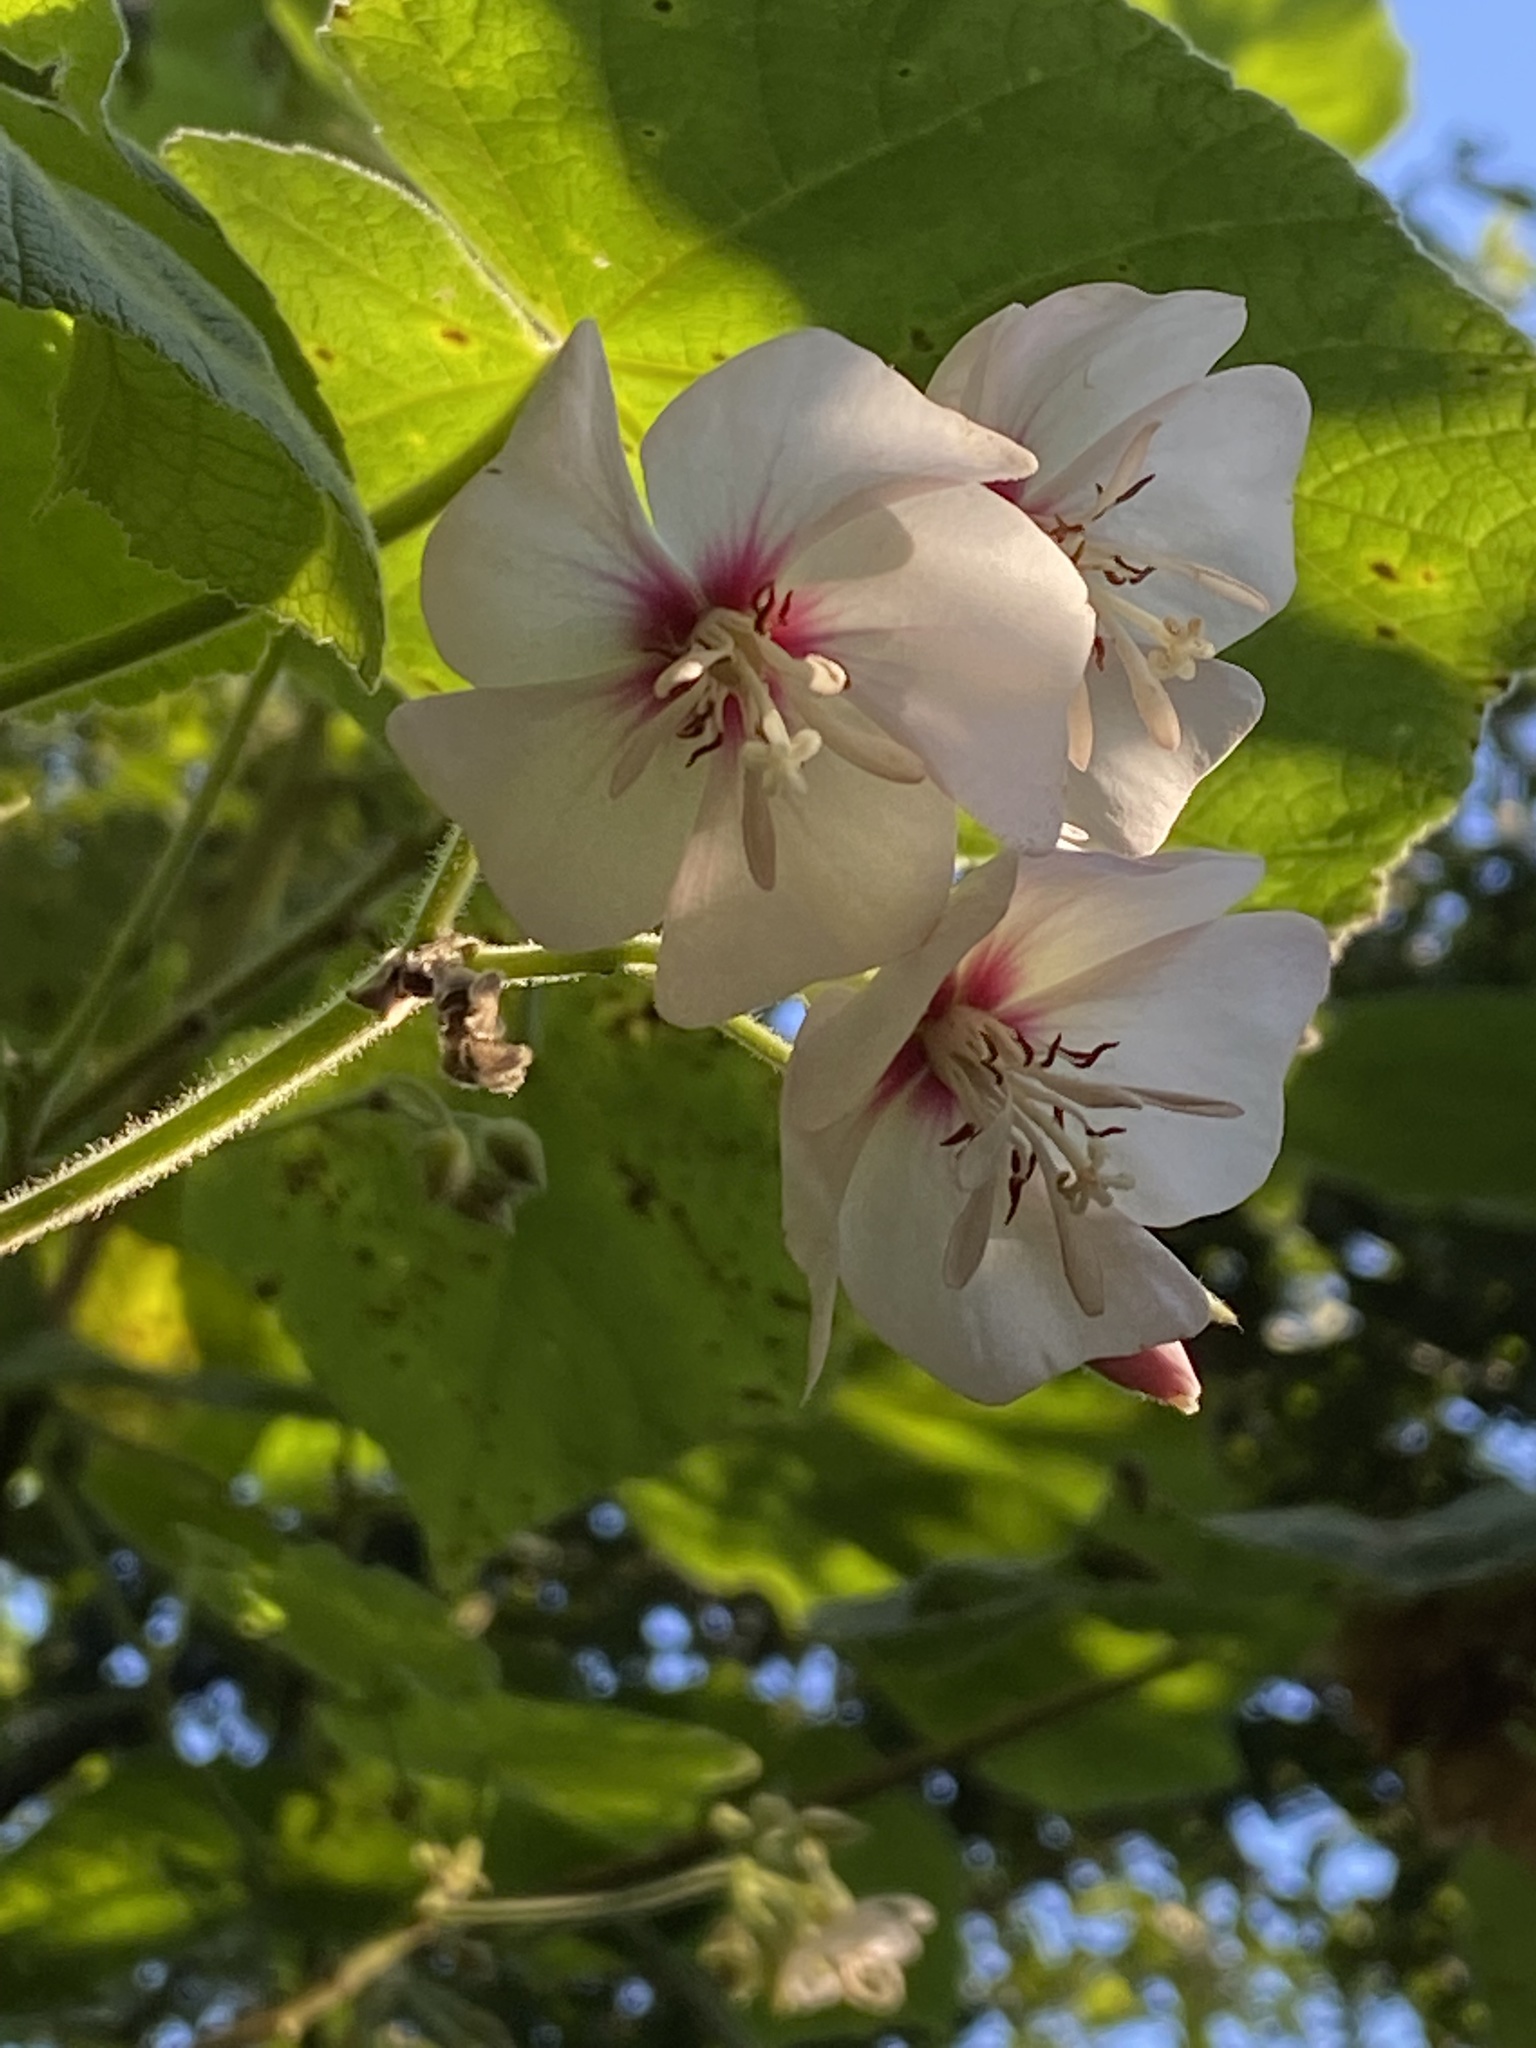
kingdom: Plantae
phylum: Tracheophyta
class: Magnoliopsida
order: Malvales
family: Malvaceae
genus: Dombeya
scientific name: Dombeya burgessiae
